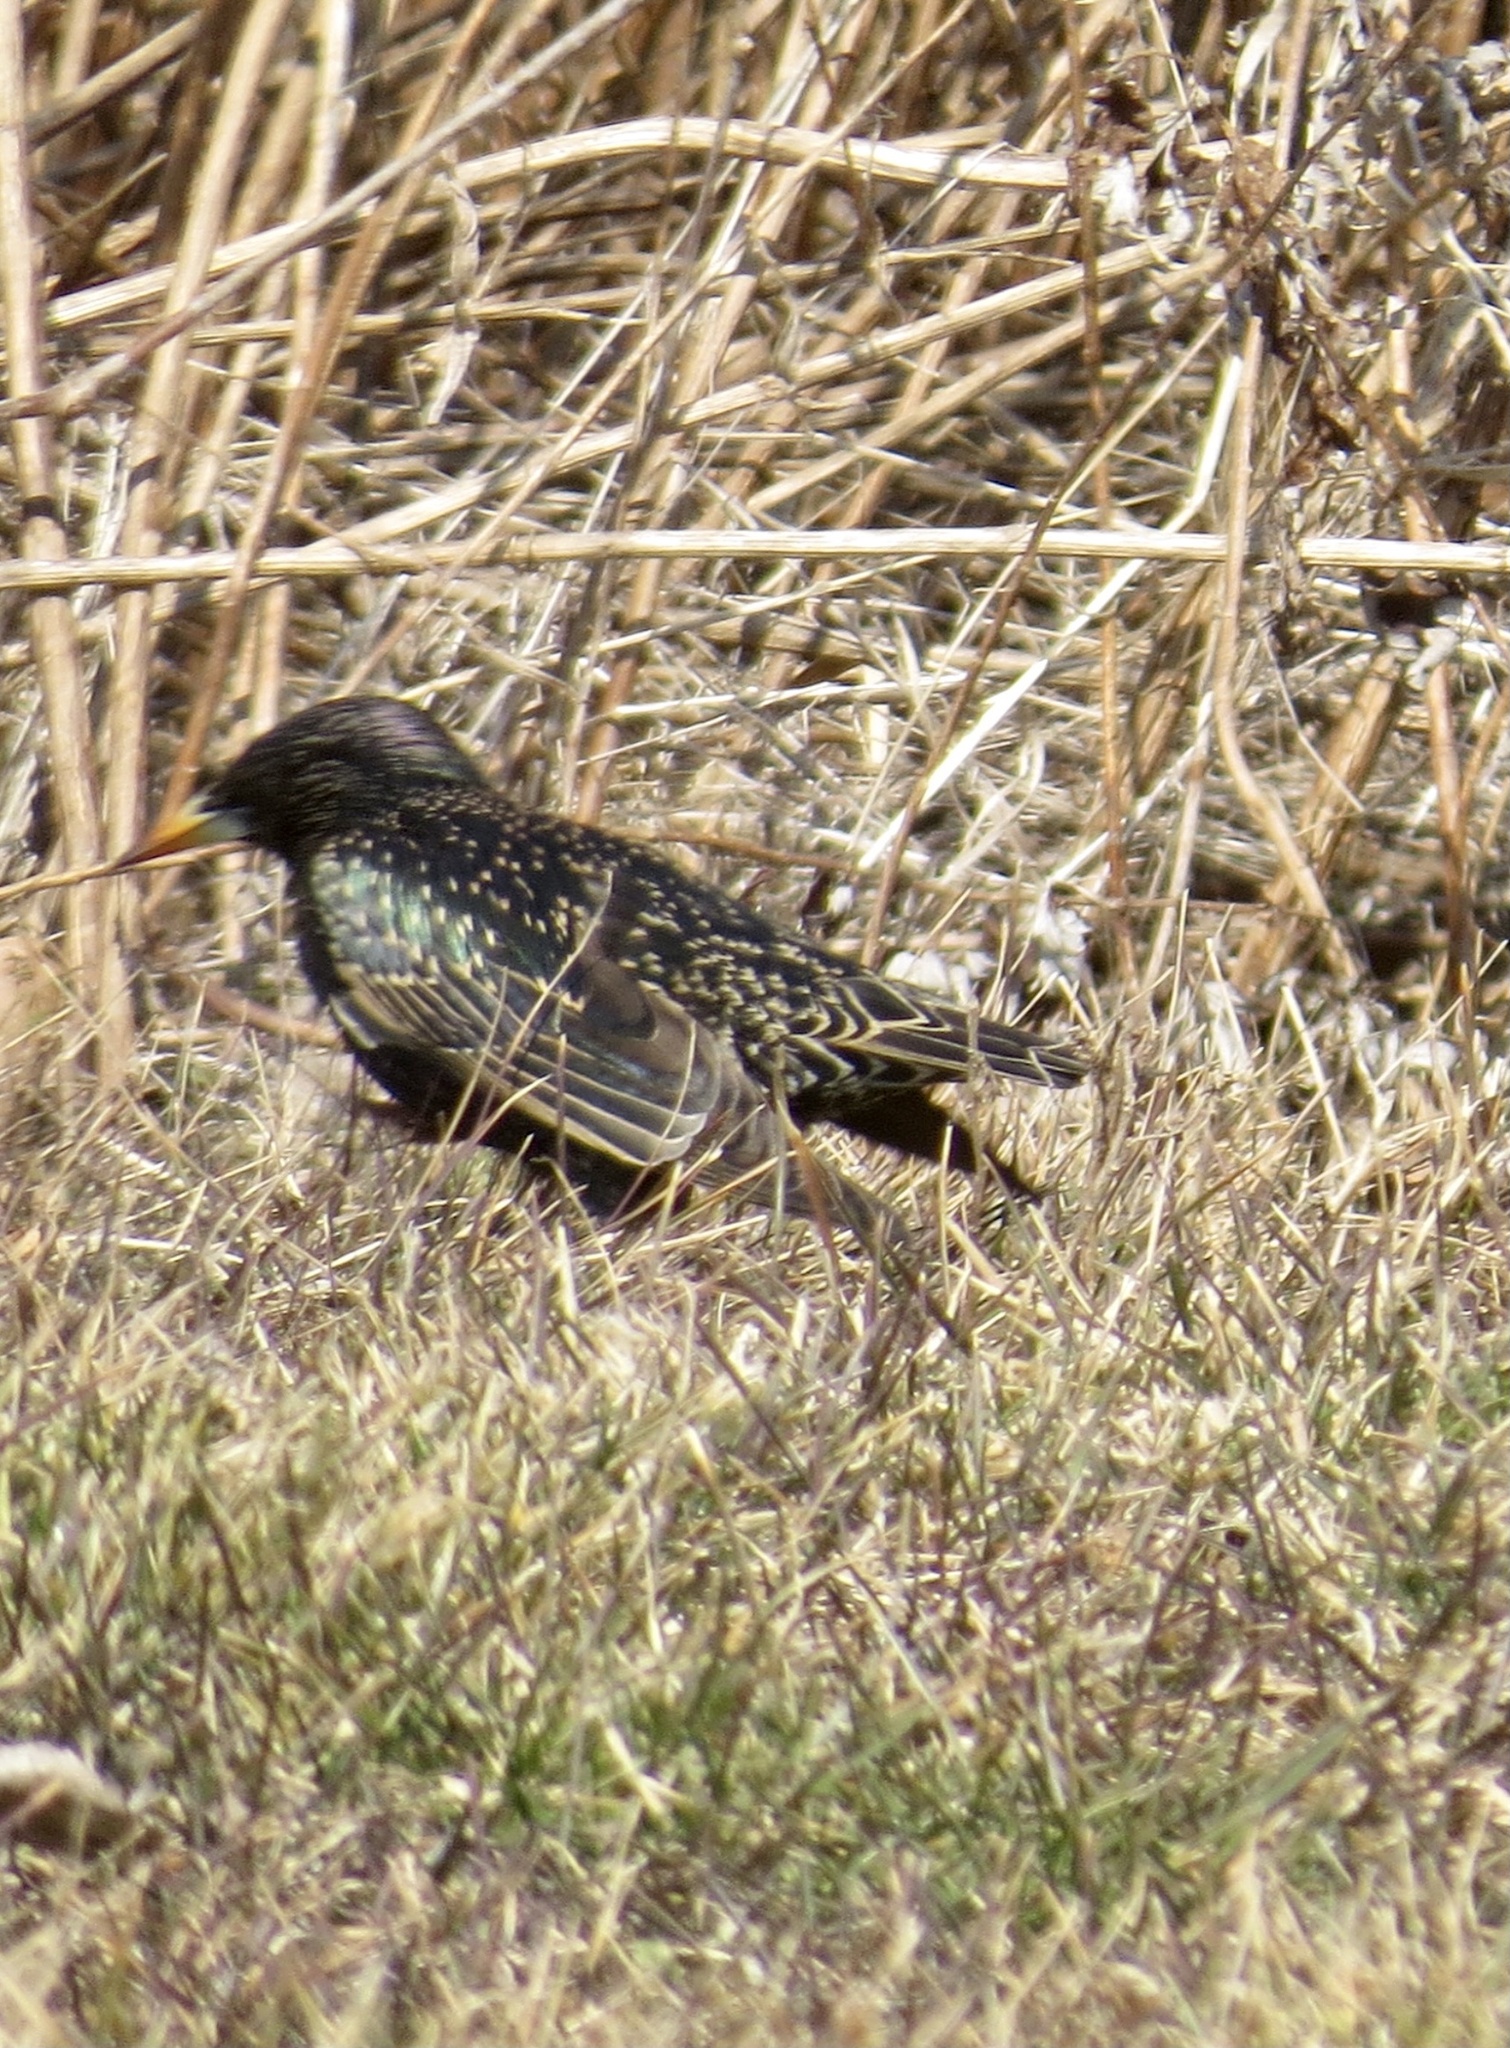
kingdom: Animalia
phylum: Chordata
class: Aves
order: Passeriformes
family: Sturnidae
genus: Sturnus
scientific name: Sturnus vulgaris
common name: Common starling
